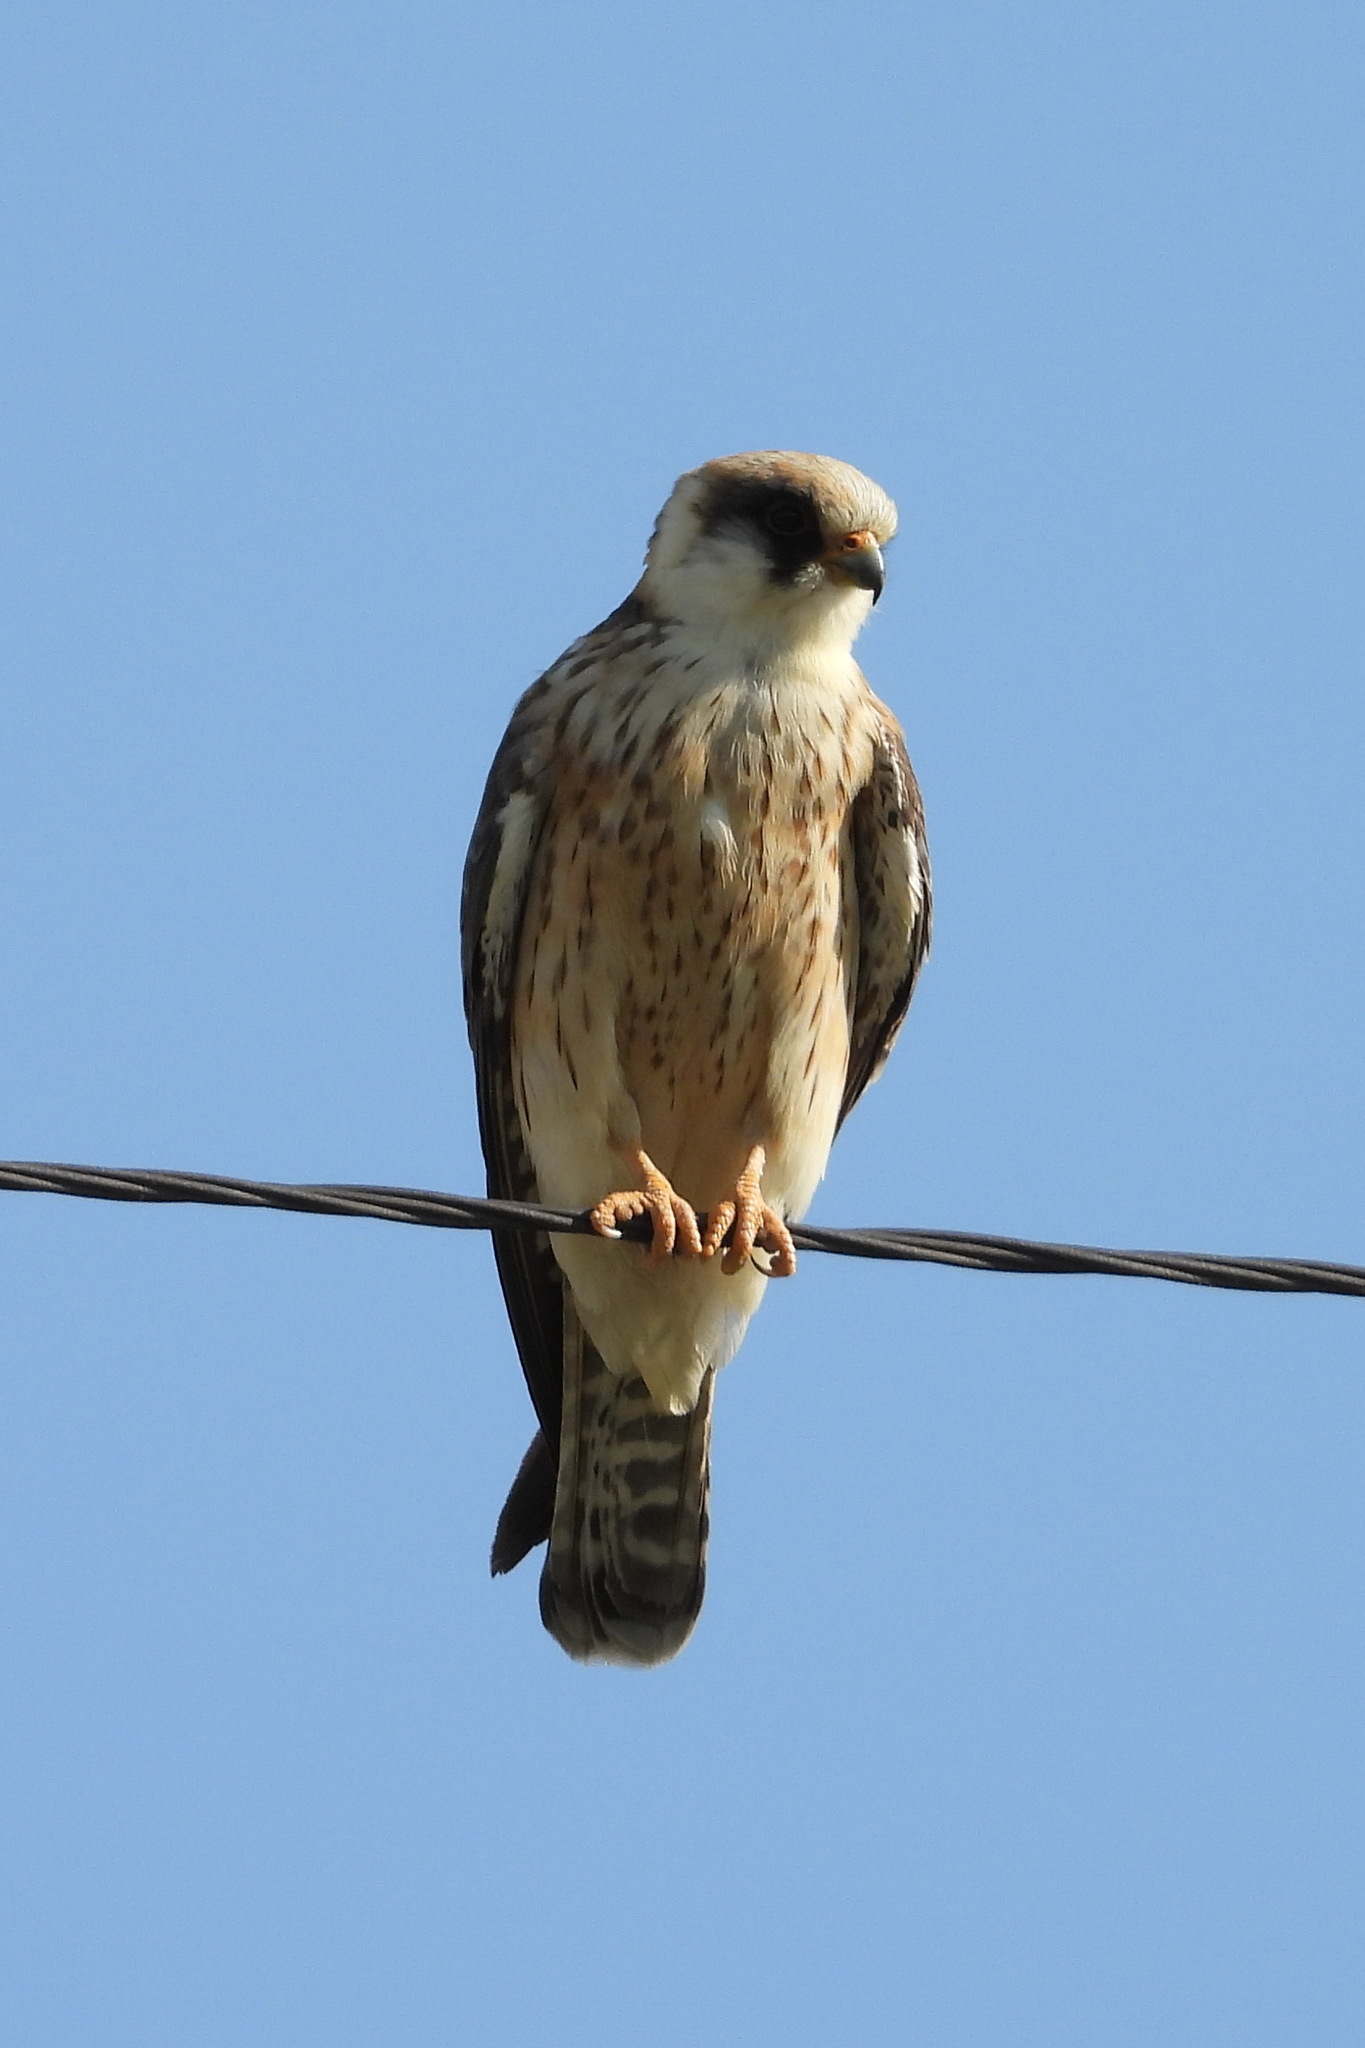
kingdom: Animalia
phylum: Chordata
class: Aves
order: Falconiformes
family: Falconidae
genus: Falco
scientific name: Falco vespertinus
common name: Red-footed falcon
